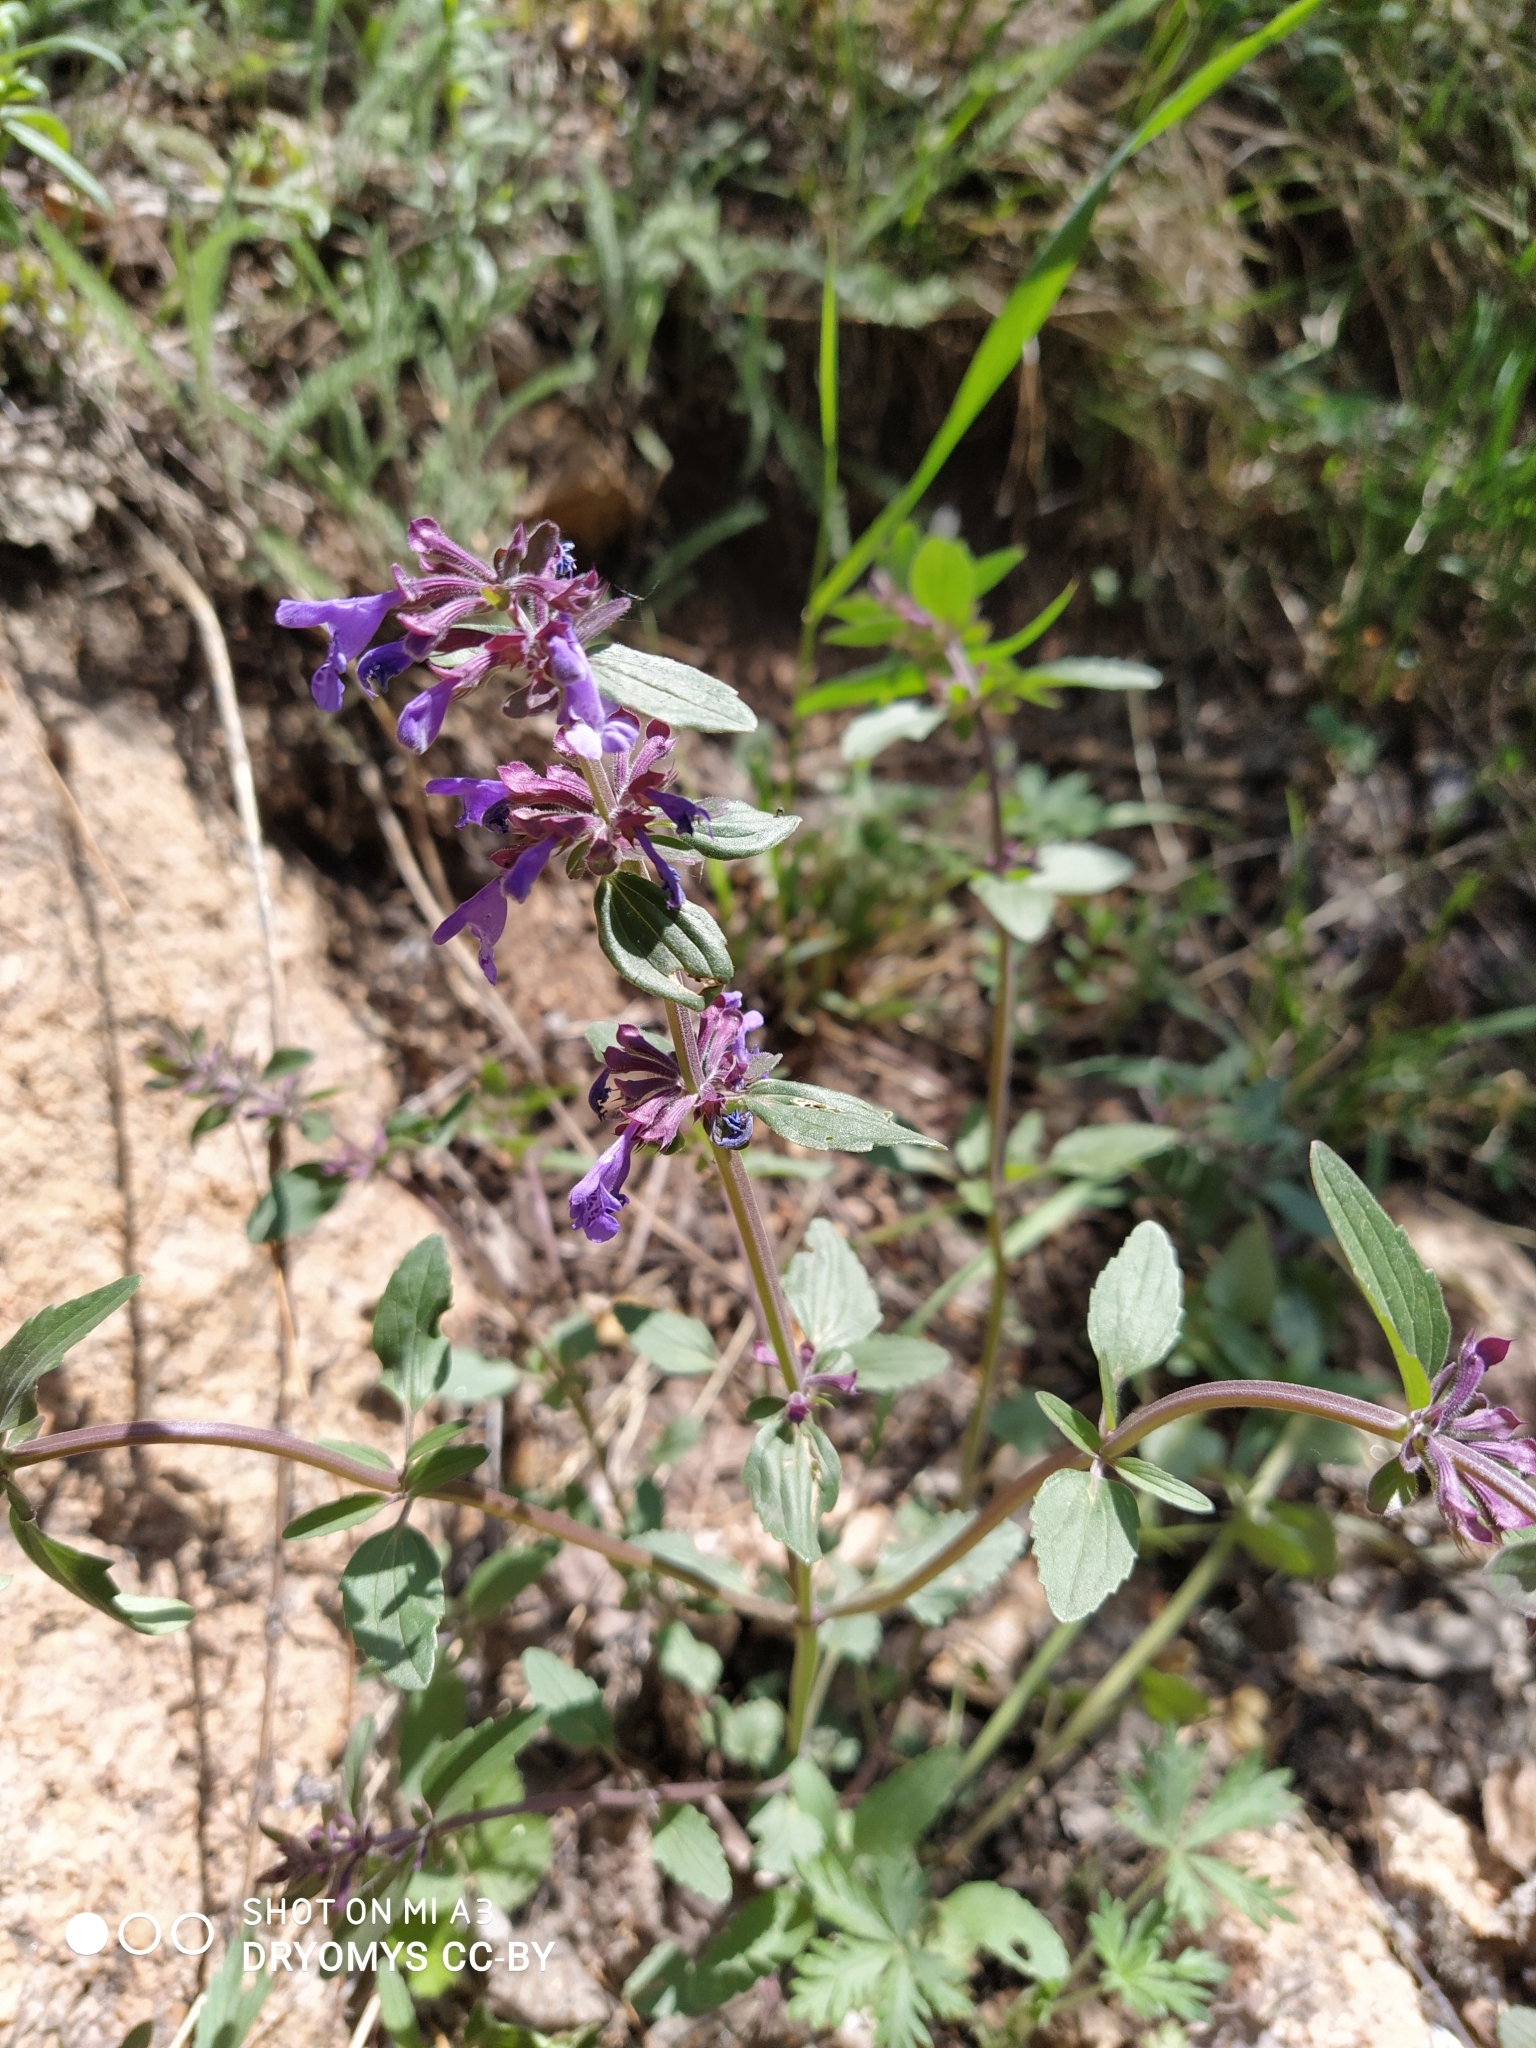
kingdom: Plantae
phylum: Tracheophyta
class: Magnoliopsida
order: Lamiales
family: Lamiaceae
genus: Dracocephalum
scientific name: Dracocephalum nutans
